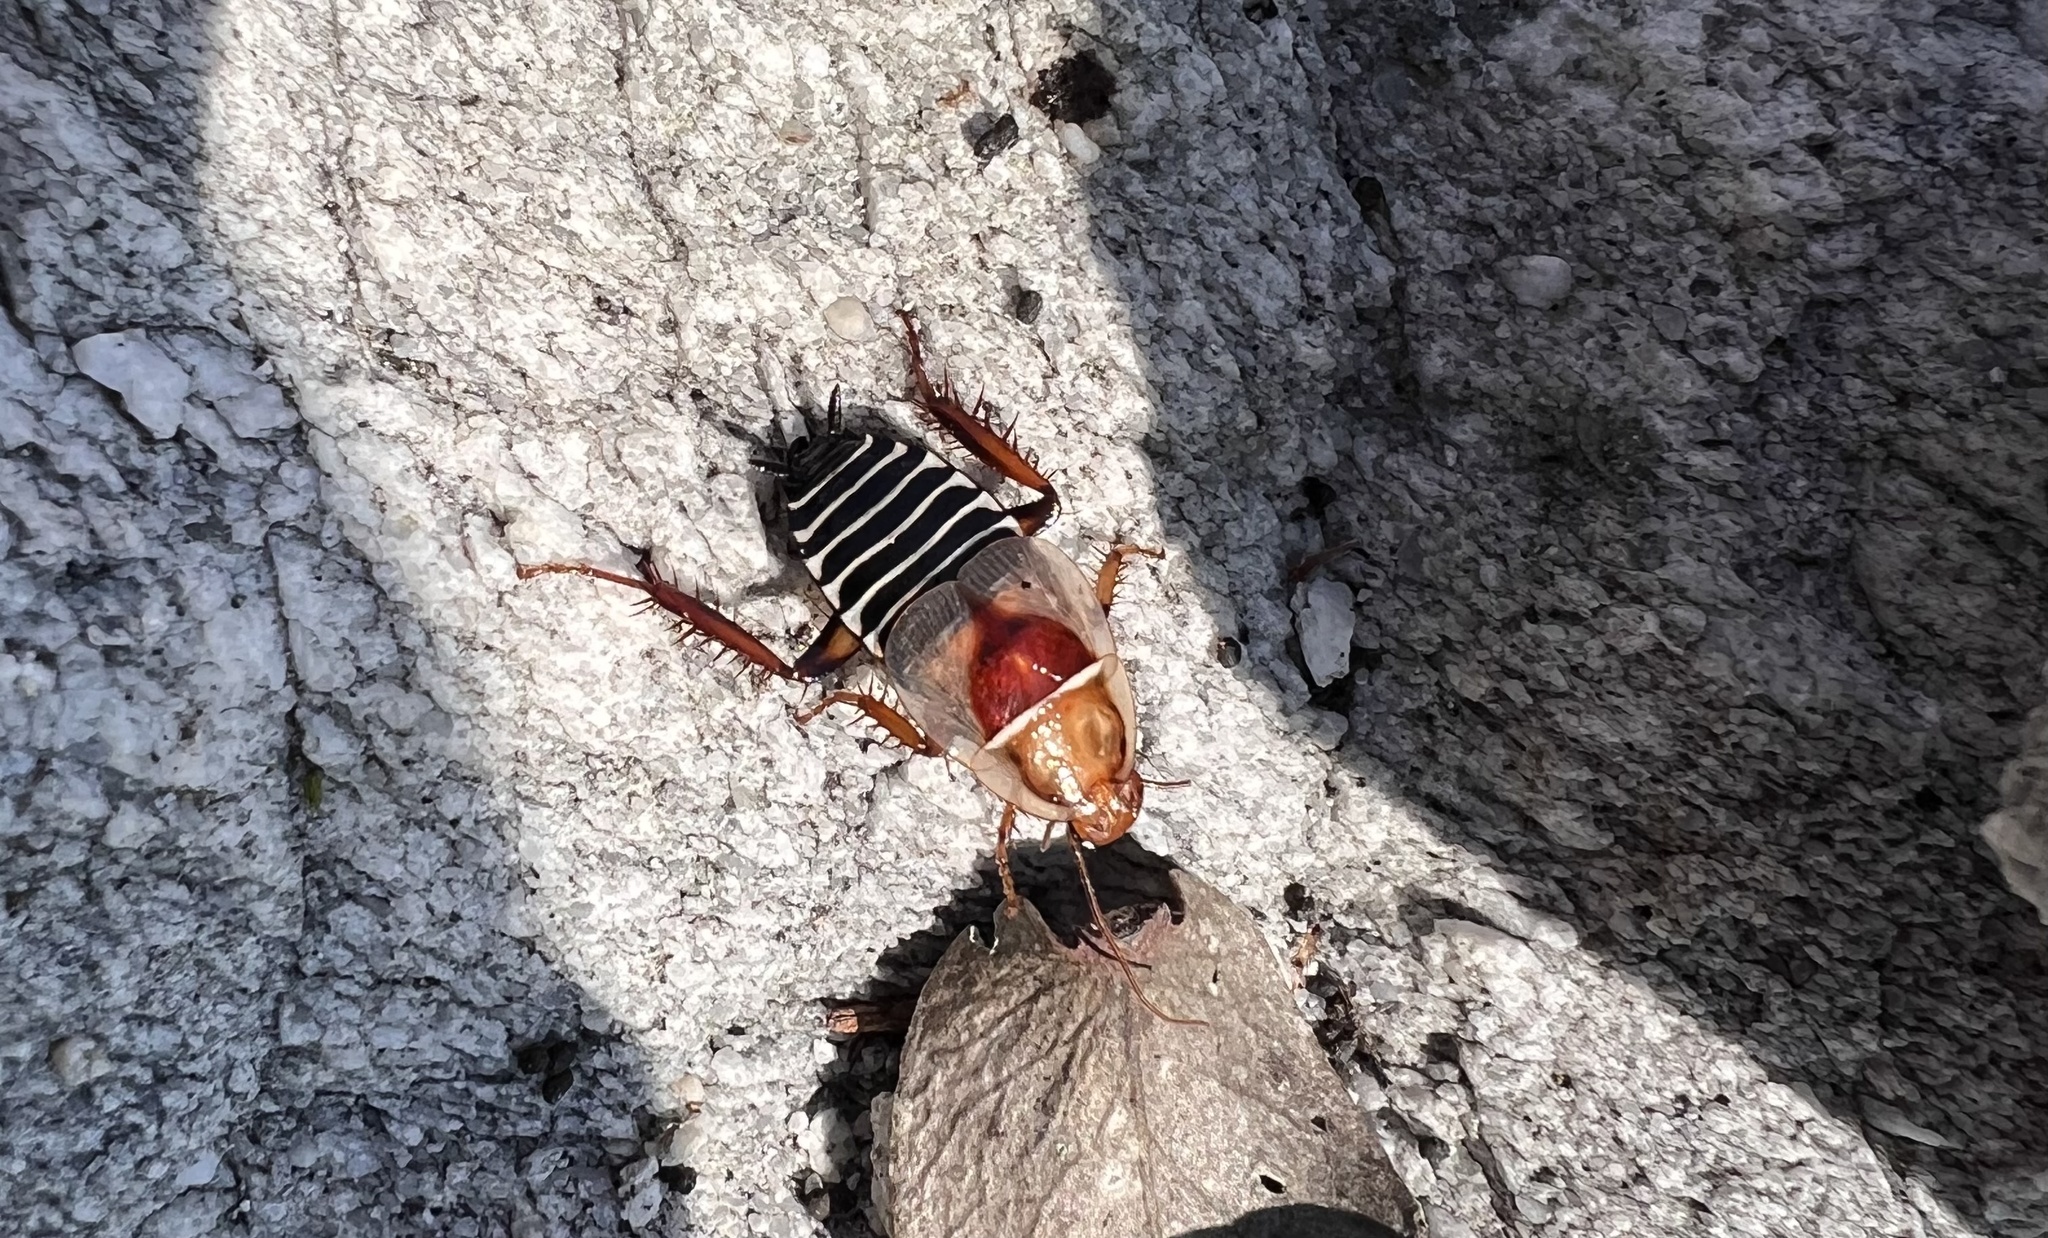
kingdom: Animalia
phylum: Arthropoda
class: Insecta
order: Blattodea
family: Ectobiidae
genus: Temnopteryx
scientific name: Temnopteryx phalerata
